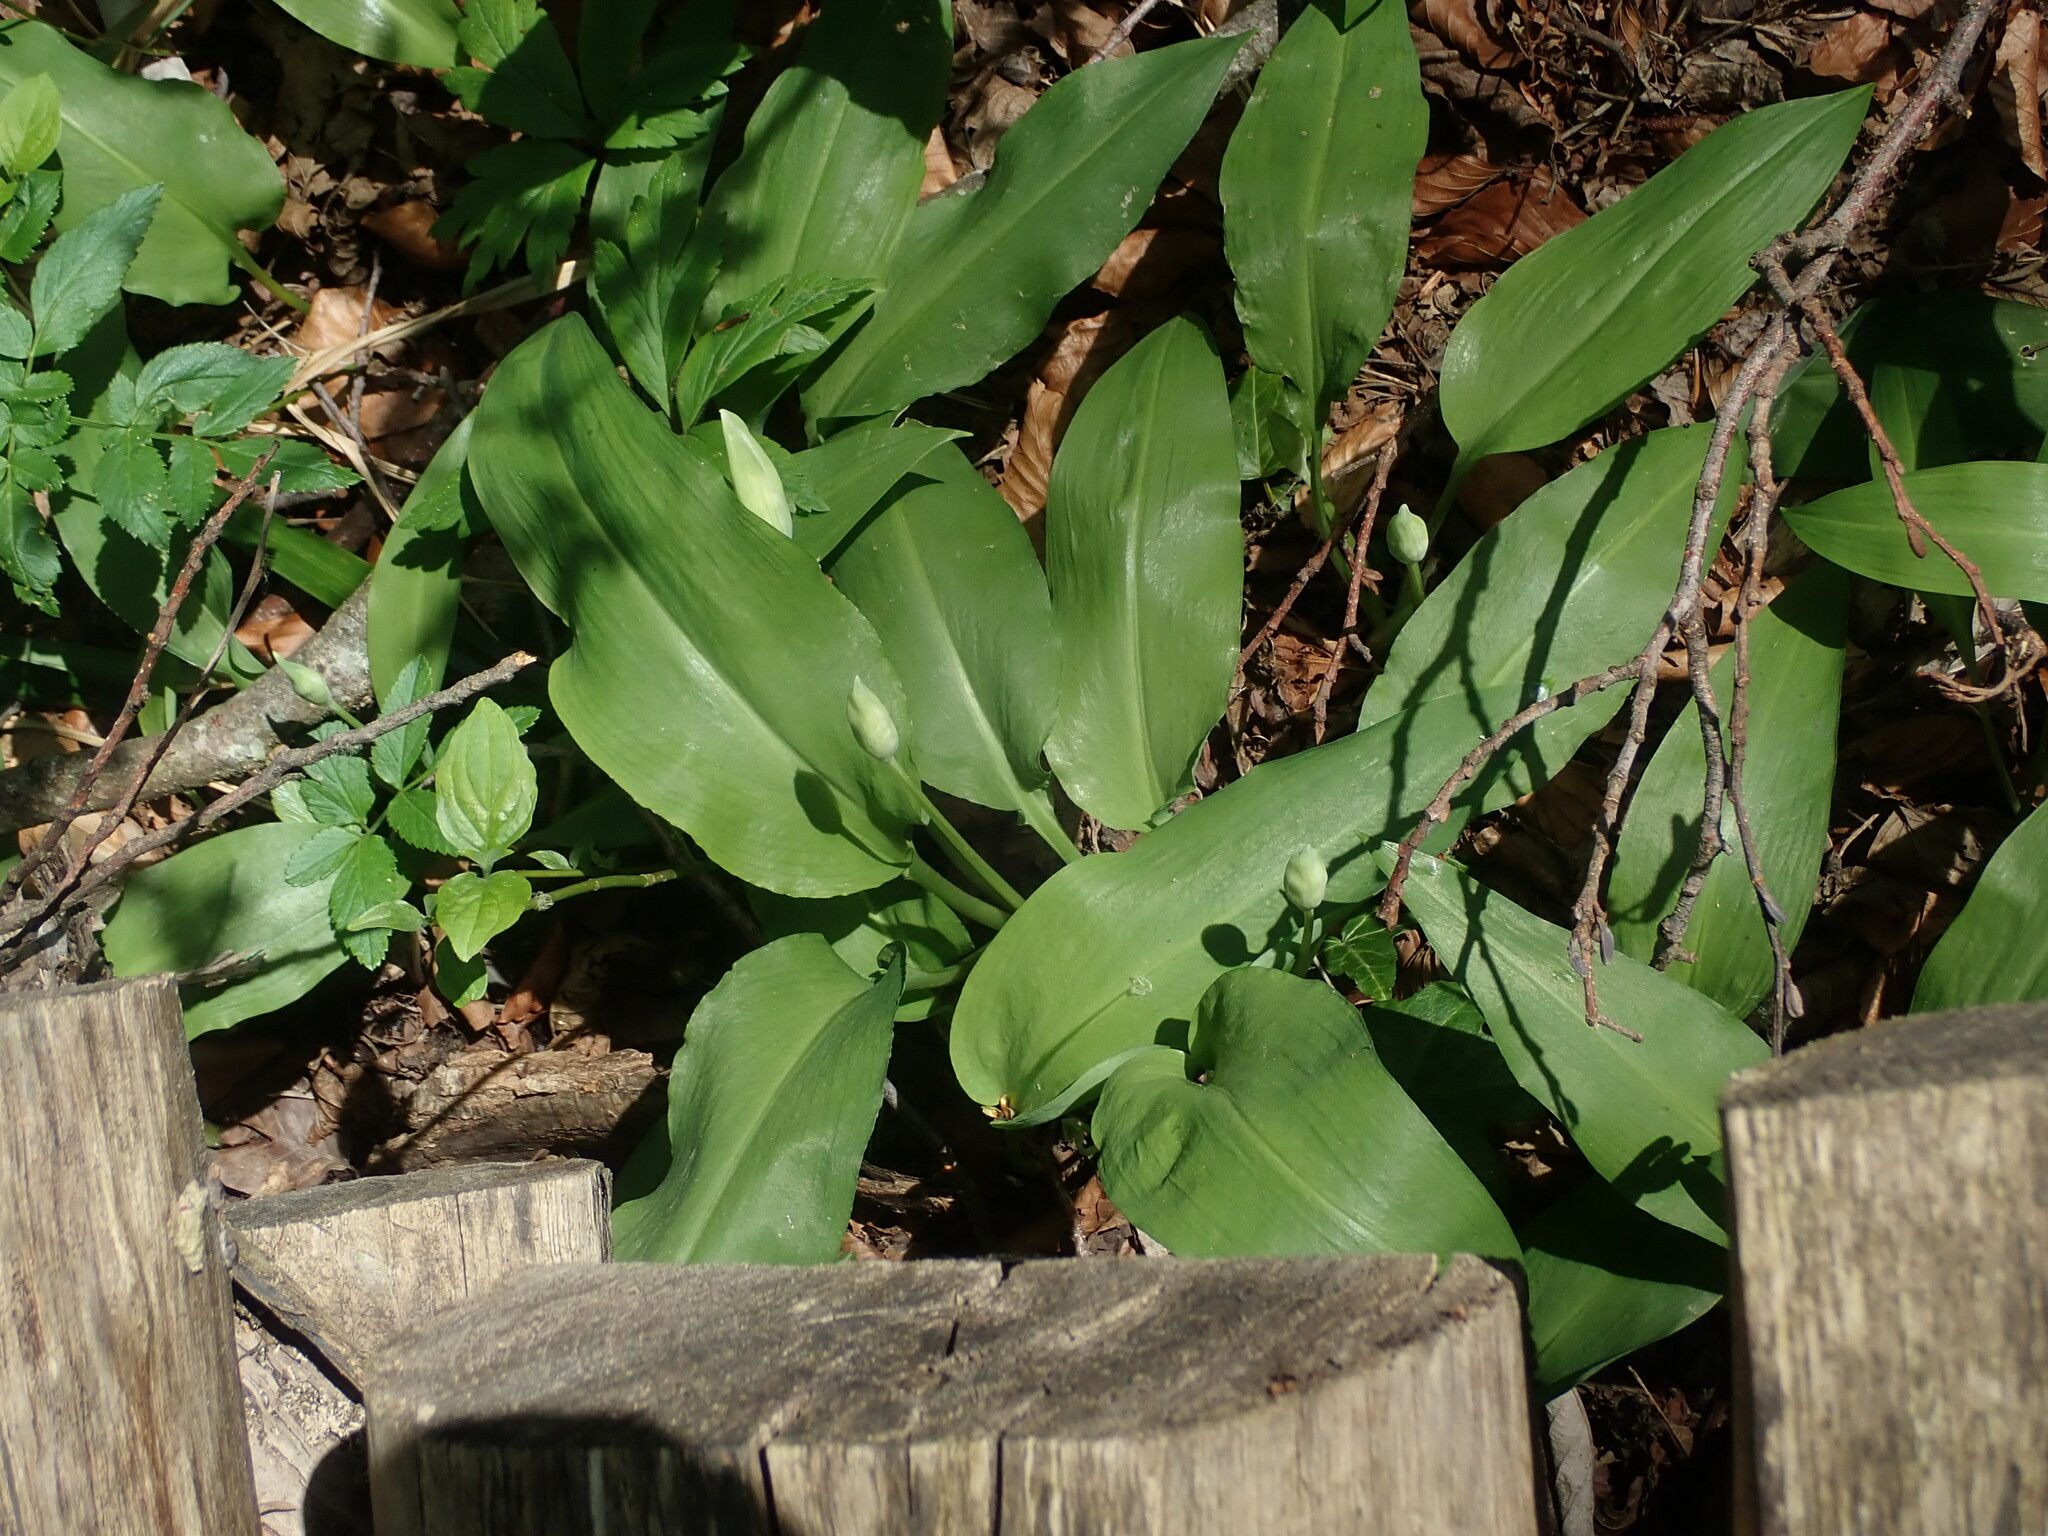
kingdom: Plantae
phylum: Tracheophyta
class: Liliopsida
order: Asparagales
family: Amaryllidaceae
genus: Allium
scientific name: Allium ursinum
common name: Ramsons
